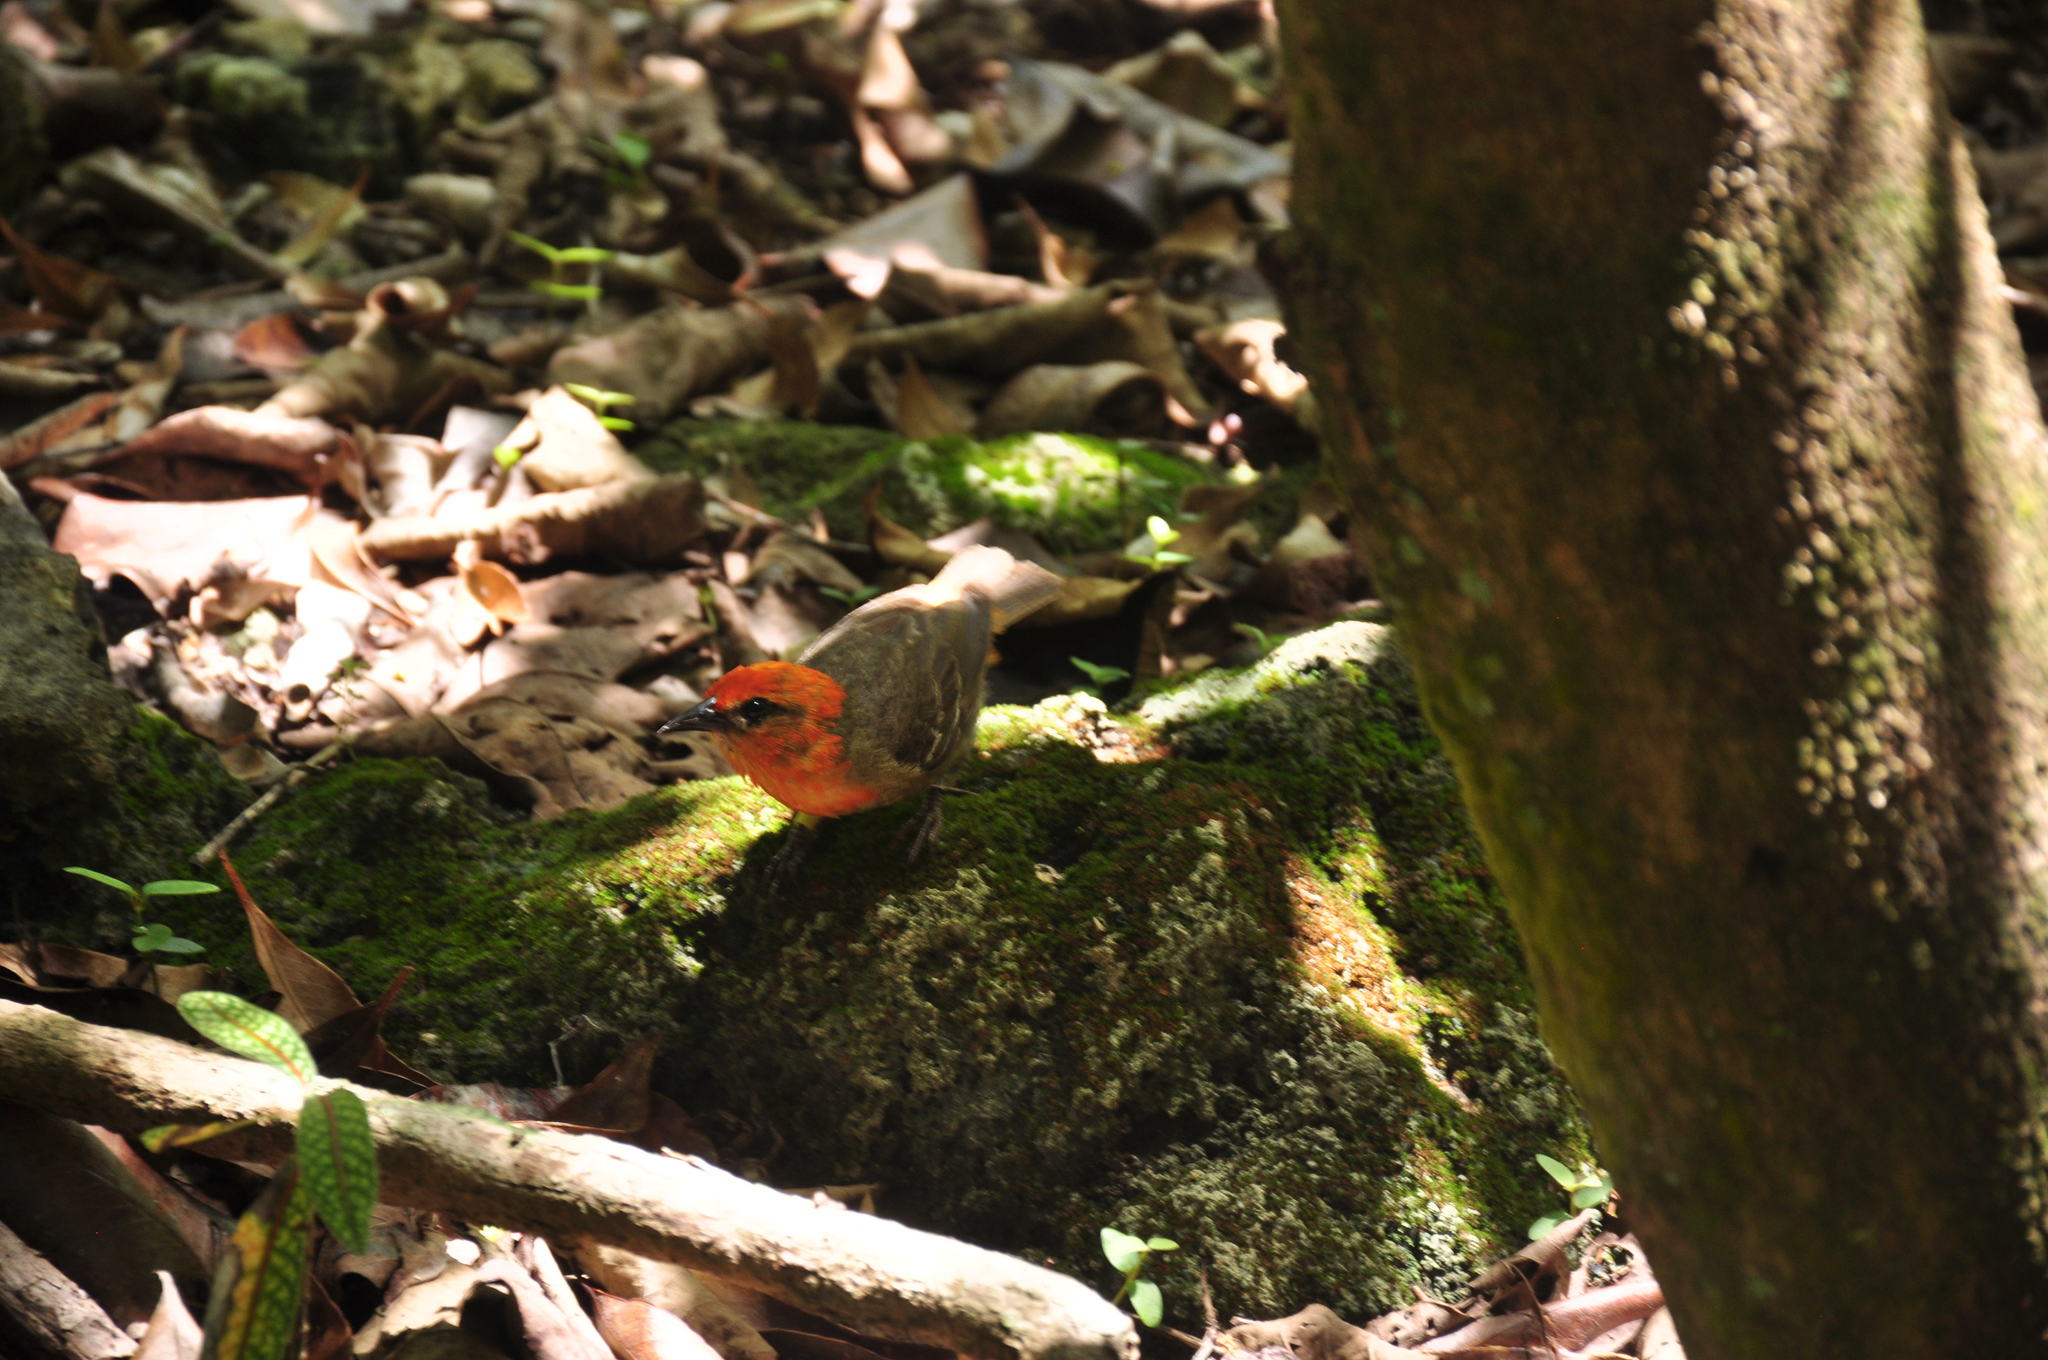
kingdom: Animalia
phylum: Chordata
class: Aves
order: Passeriformes
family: Ploceidae
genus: Foudia
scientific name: Foudia rubra
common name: Mauritius fody
